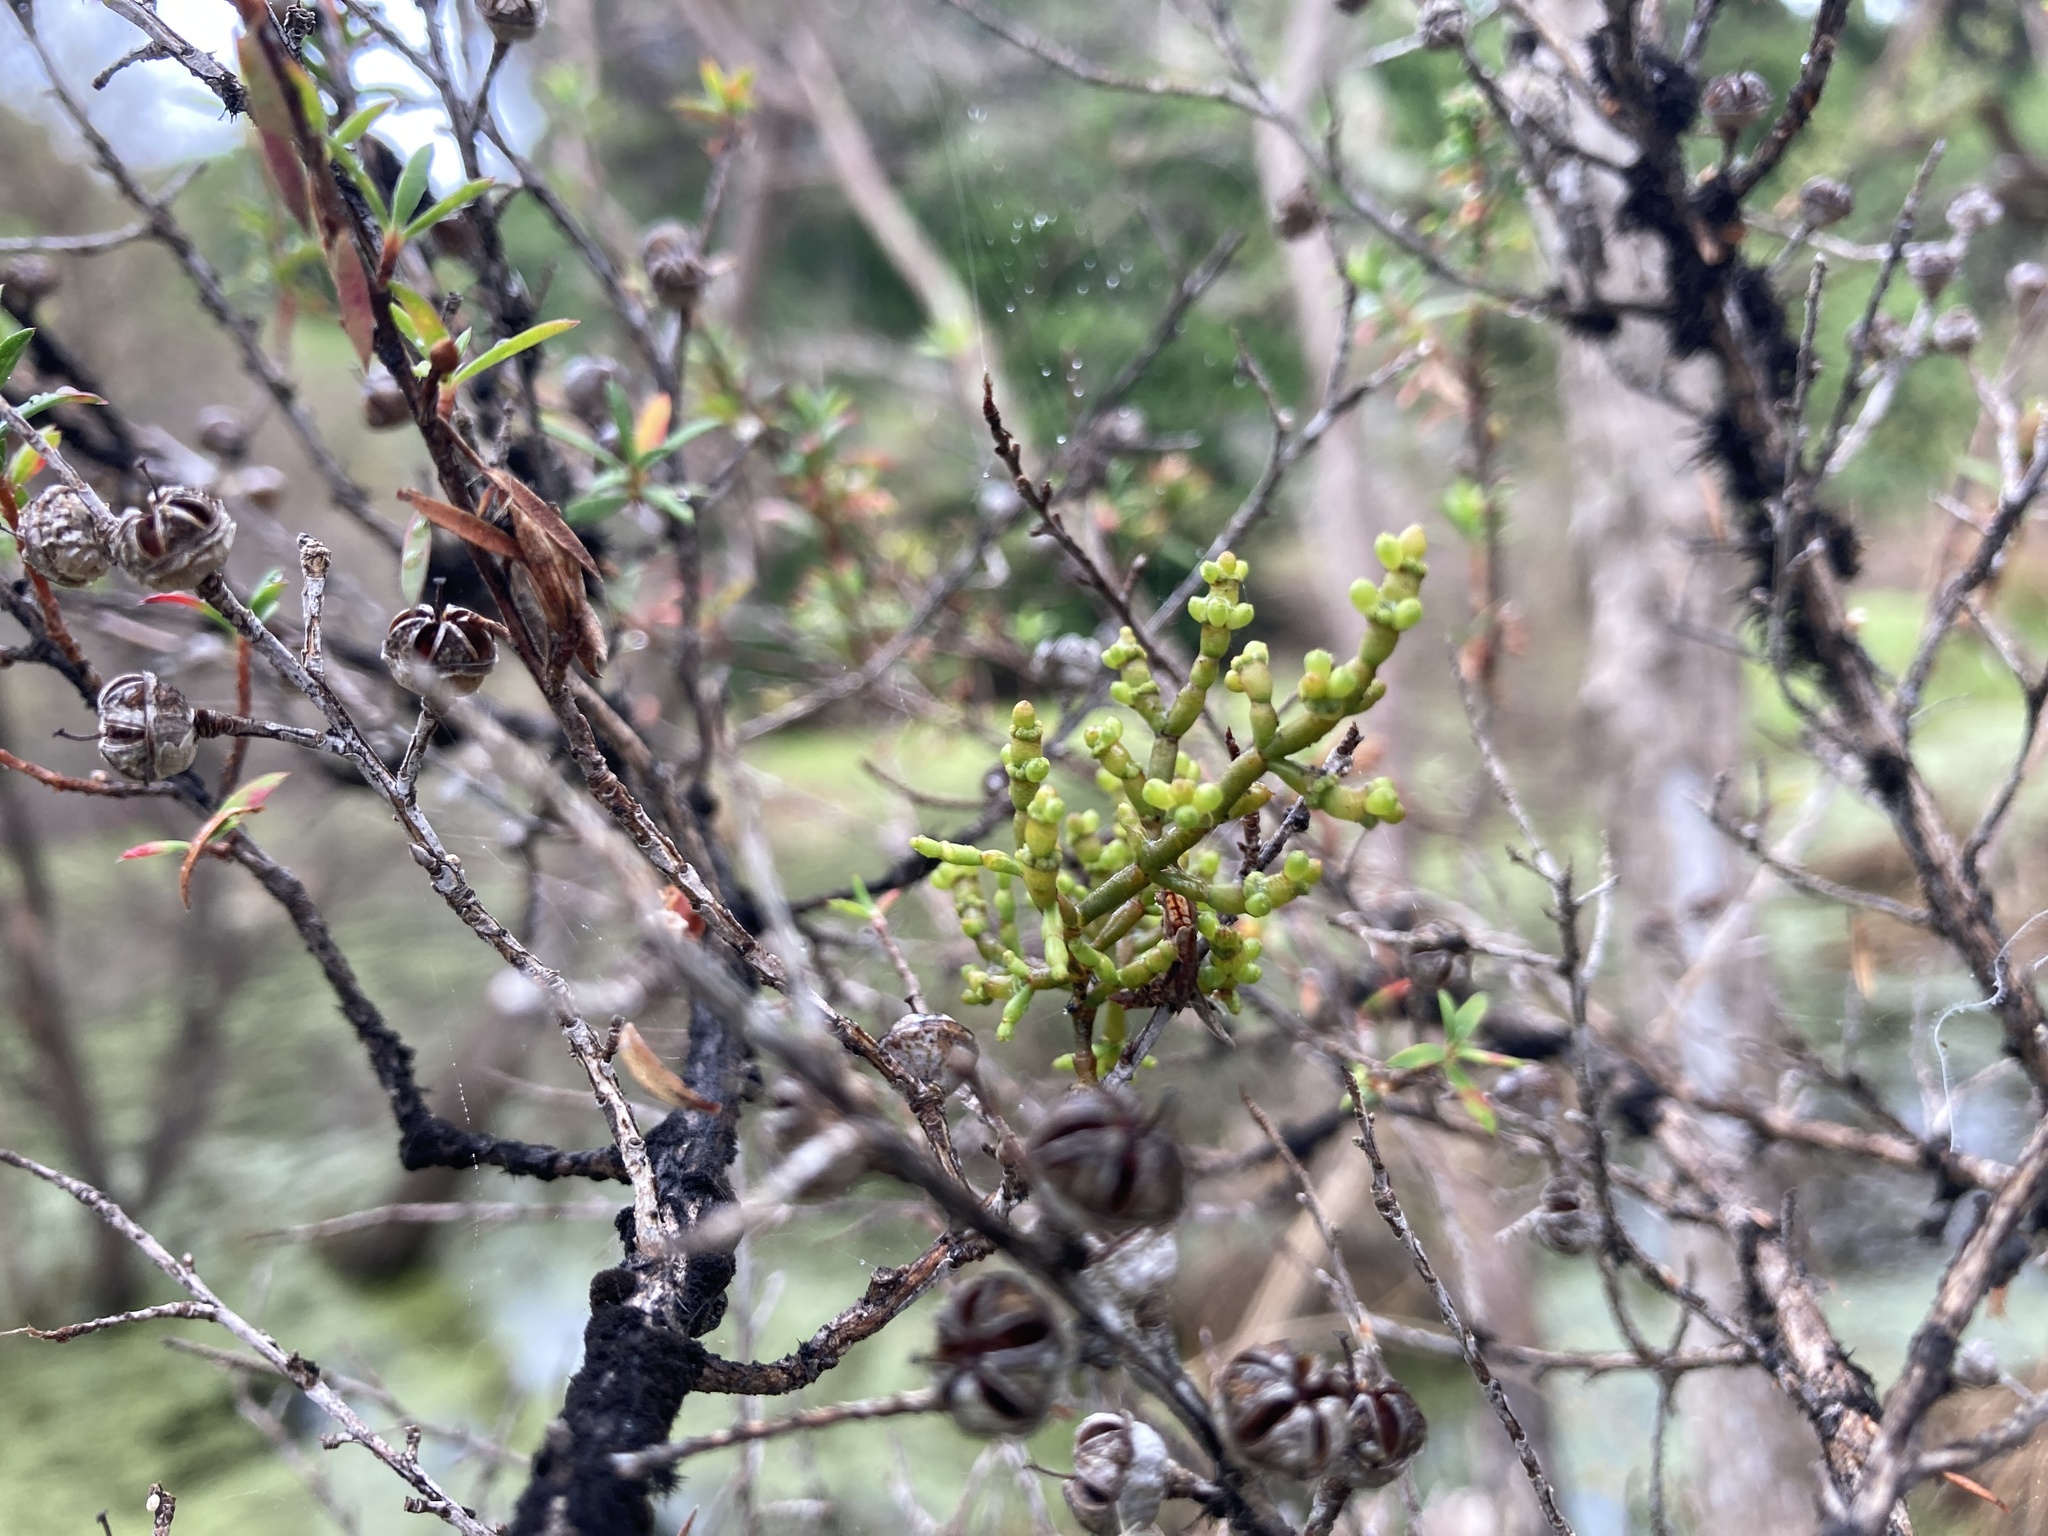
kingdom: Plantae
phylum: Tracheophyta
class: Magnoliopsida
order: Santalales
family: Viscaceae
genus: Korthalsella
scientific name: Korthalsella salicornioides
